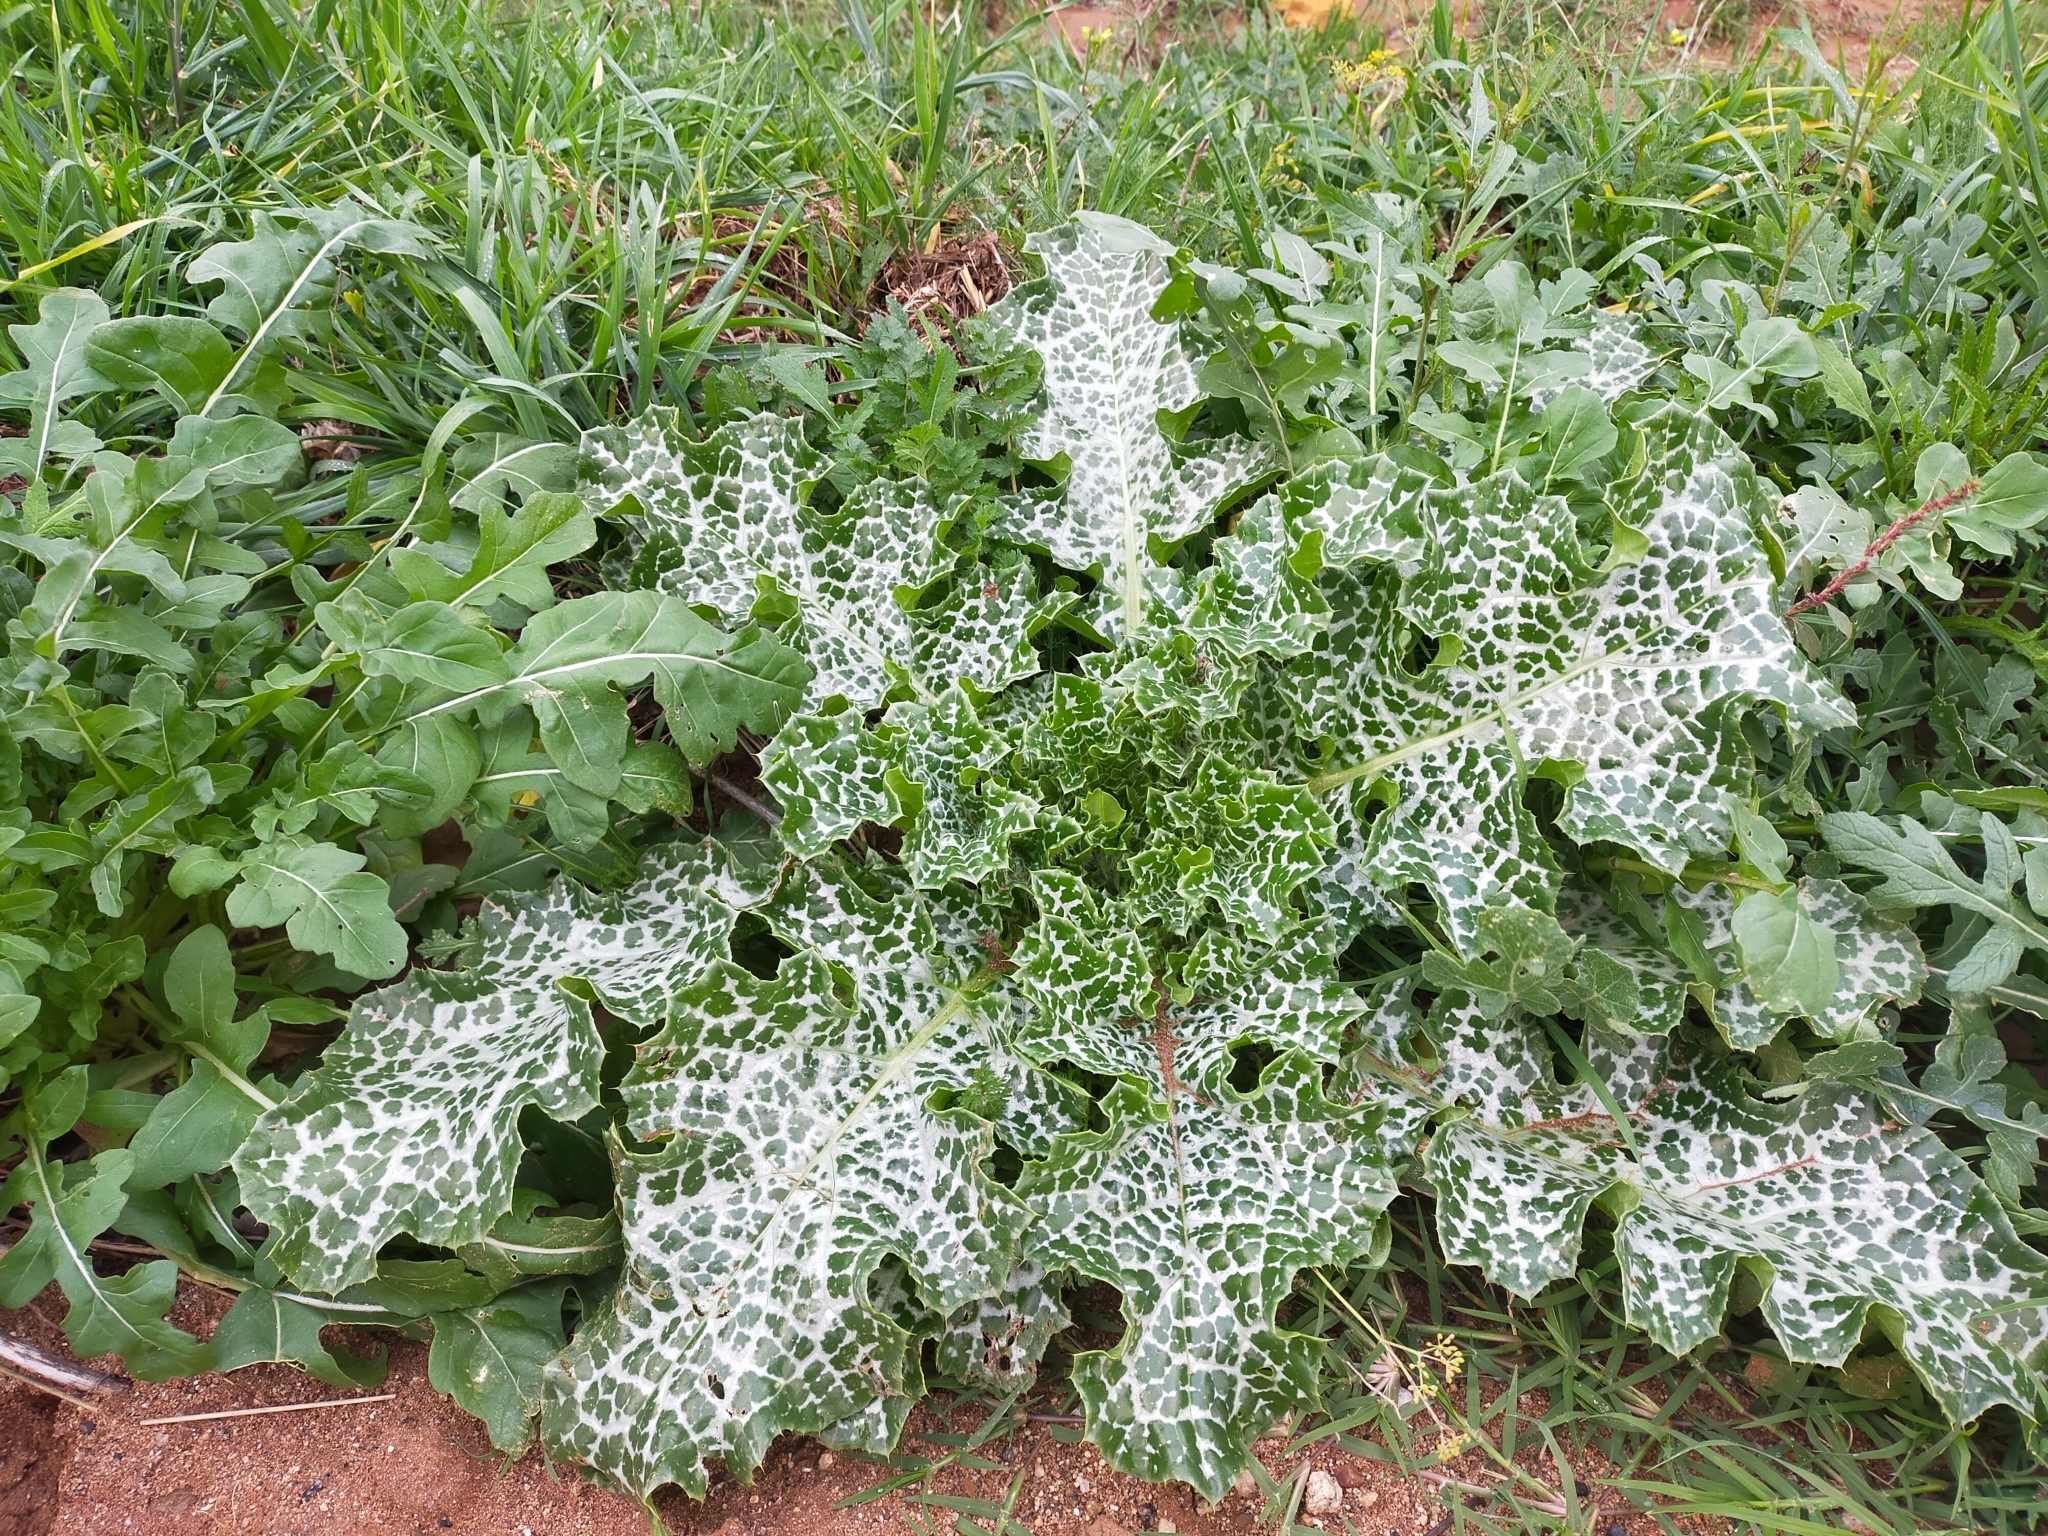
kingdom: Plantae
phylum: Tracheophyta
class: Magnoliopsida
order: Asterales
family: Asteraceae
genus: Silybum
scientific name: Silybum marianum
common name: Milk thistle
